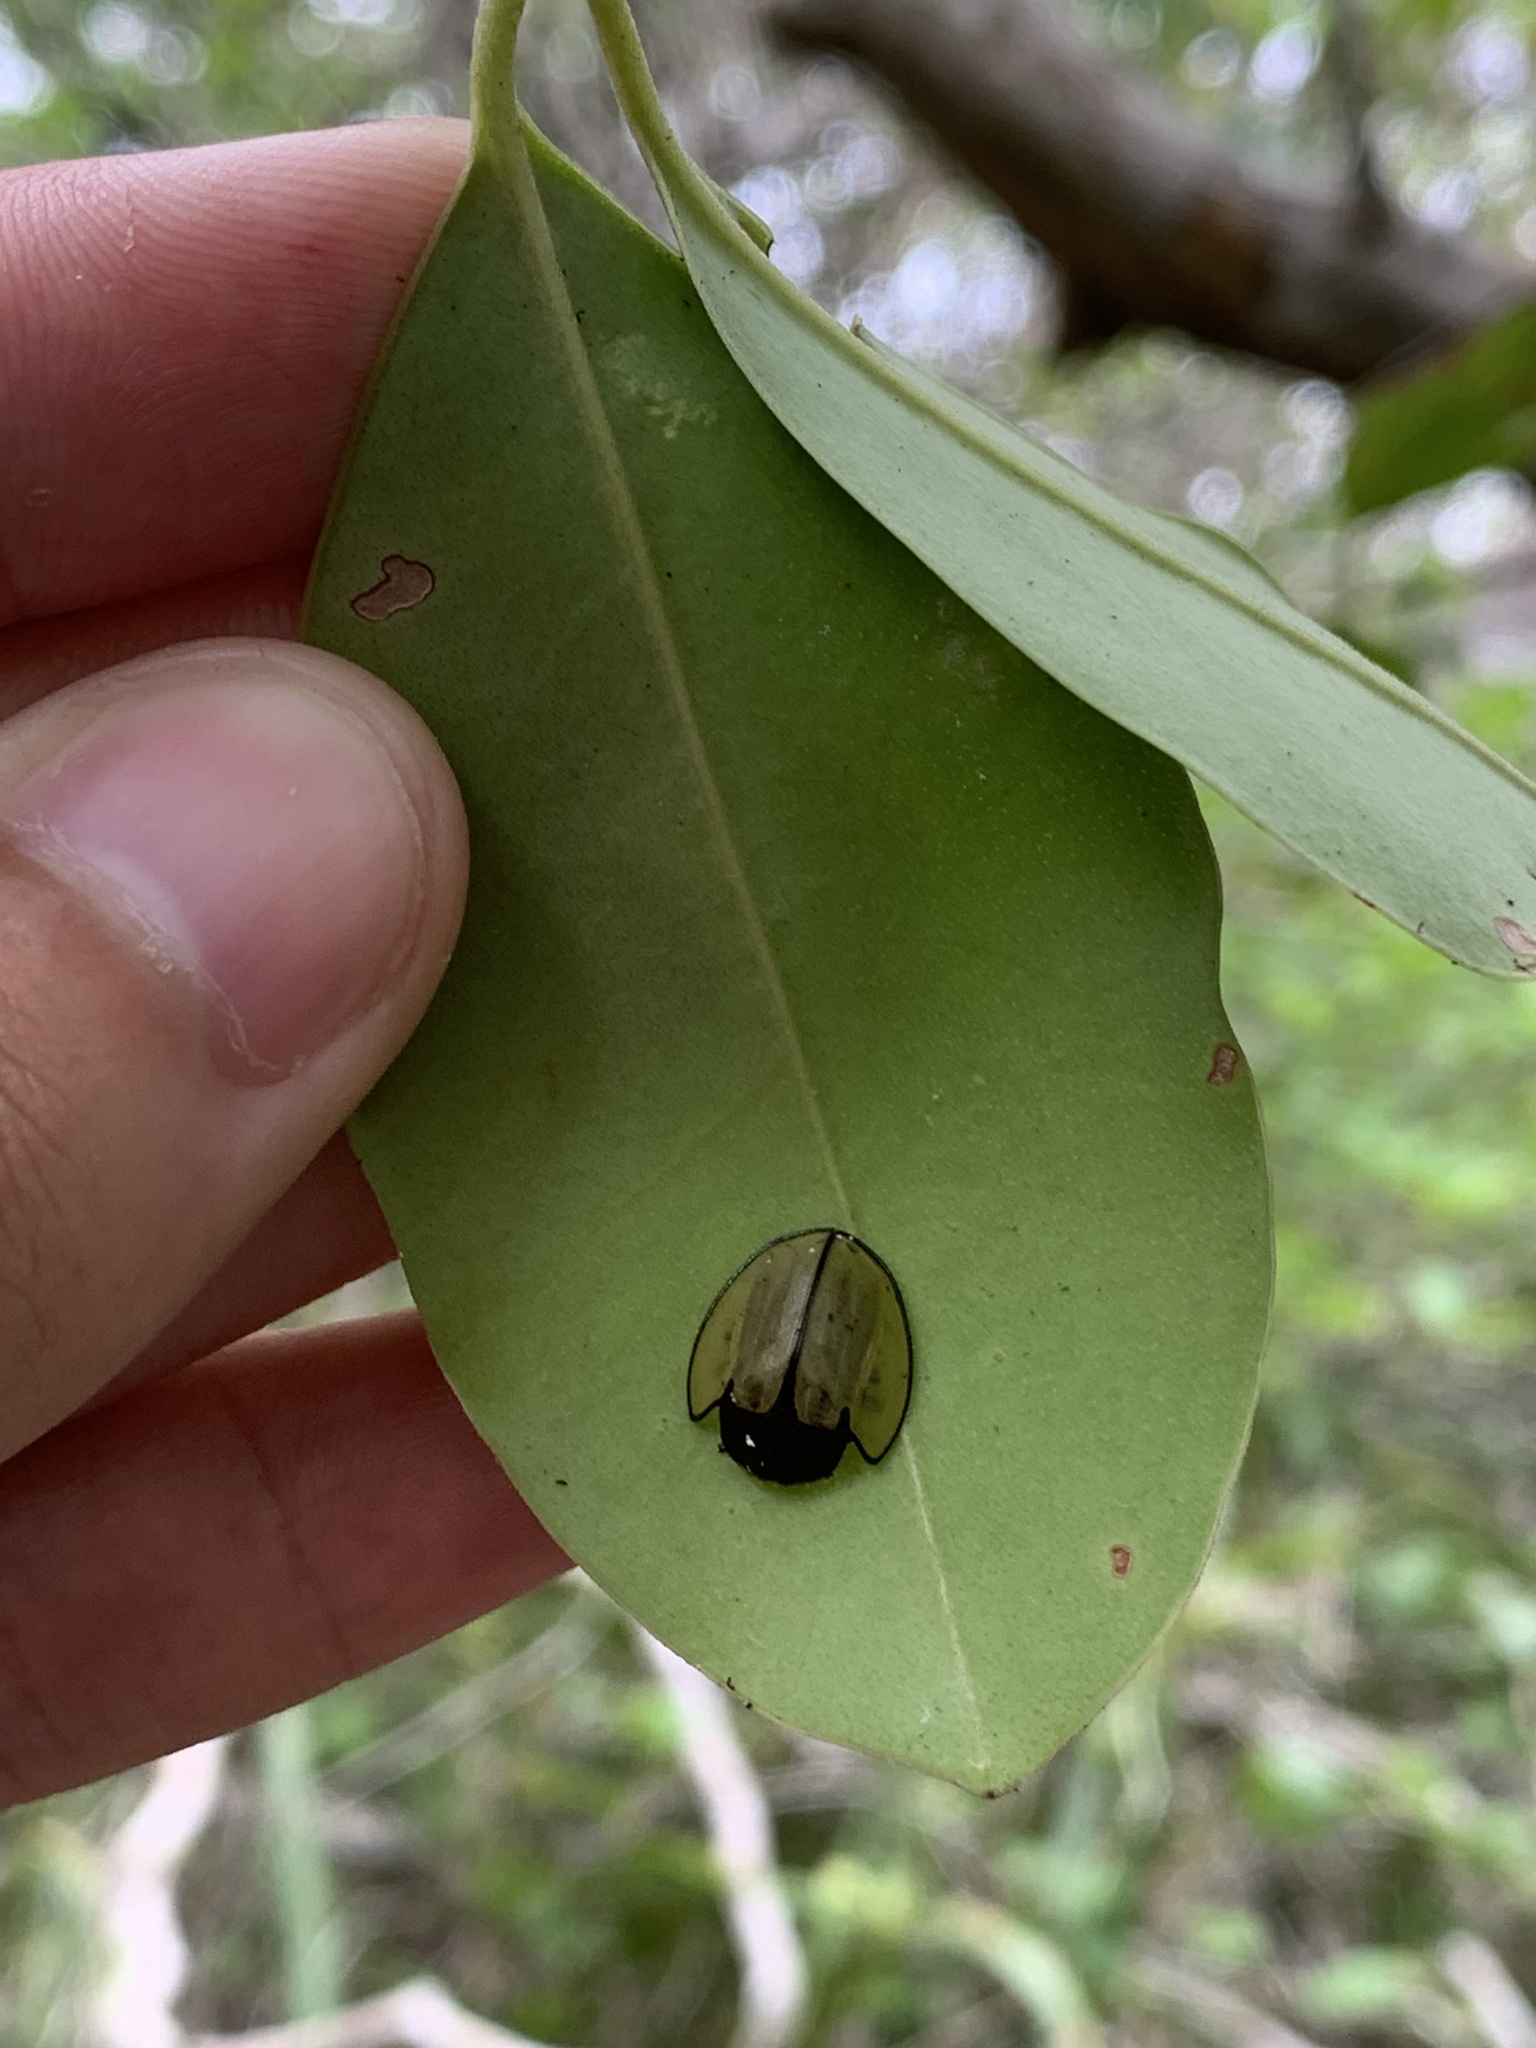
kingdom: Animalia
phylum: Arthropoda
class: Insecta
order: Coleoptera
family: Chrysomelidae
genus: Echoma
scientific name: Echoma clypeata
